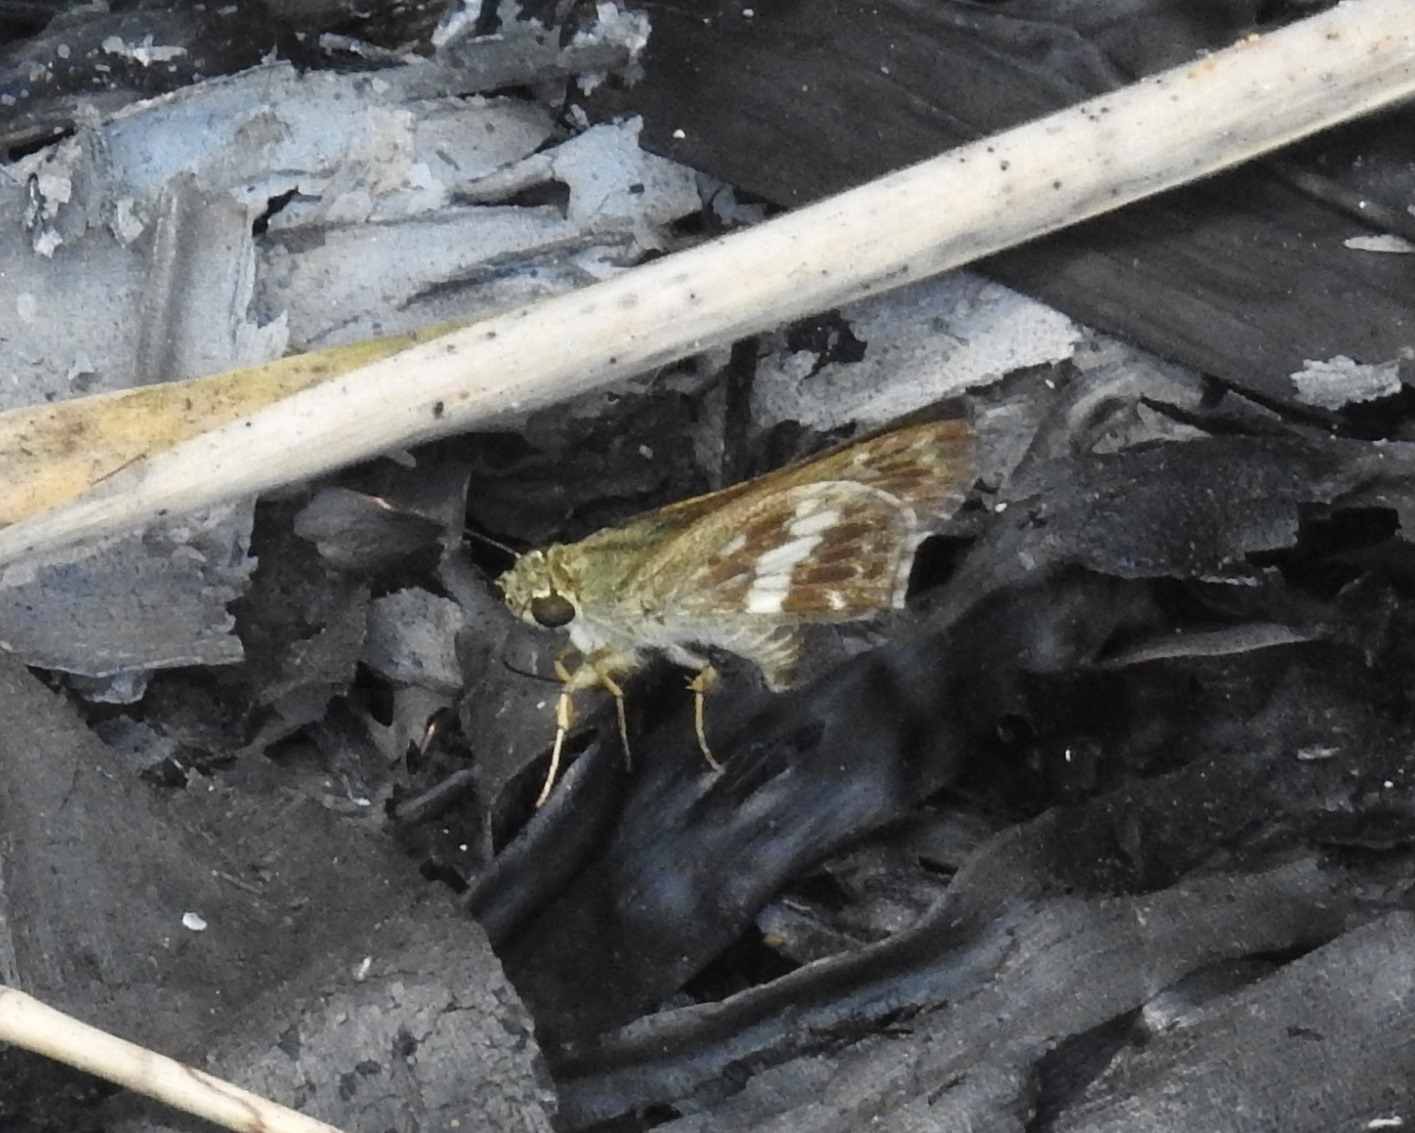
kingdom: Animalia
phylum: Arthropoda
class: Insecta
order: Lepidoptera
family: Hesperiidae
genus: Halpe
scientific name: Halpe porus
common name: Moore's ace
